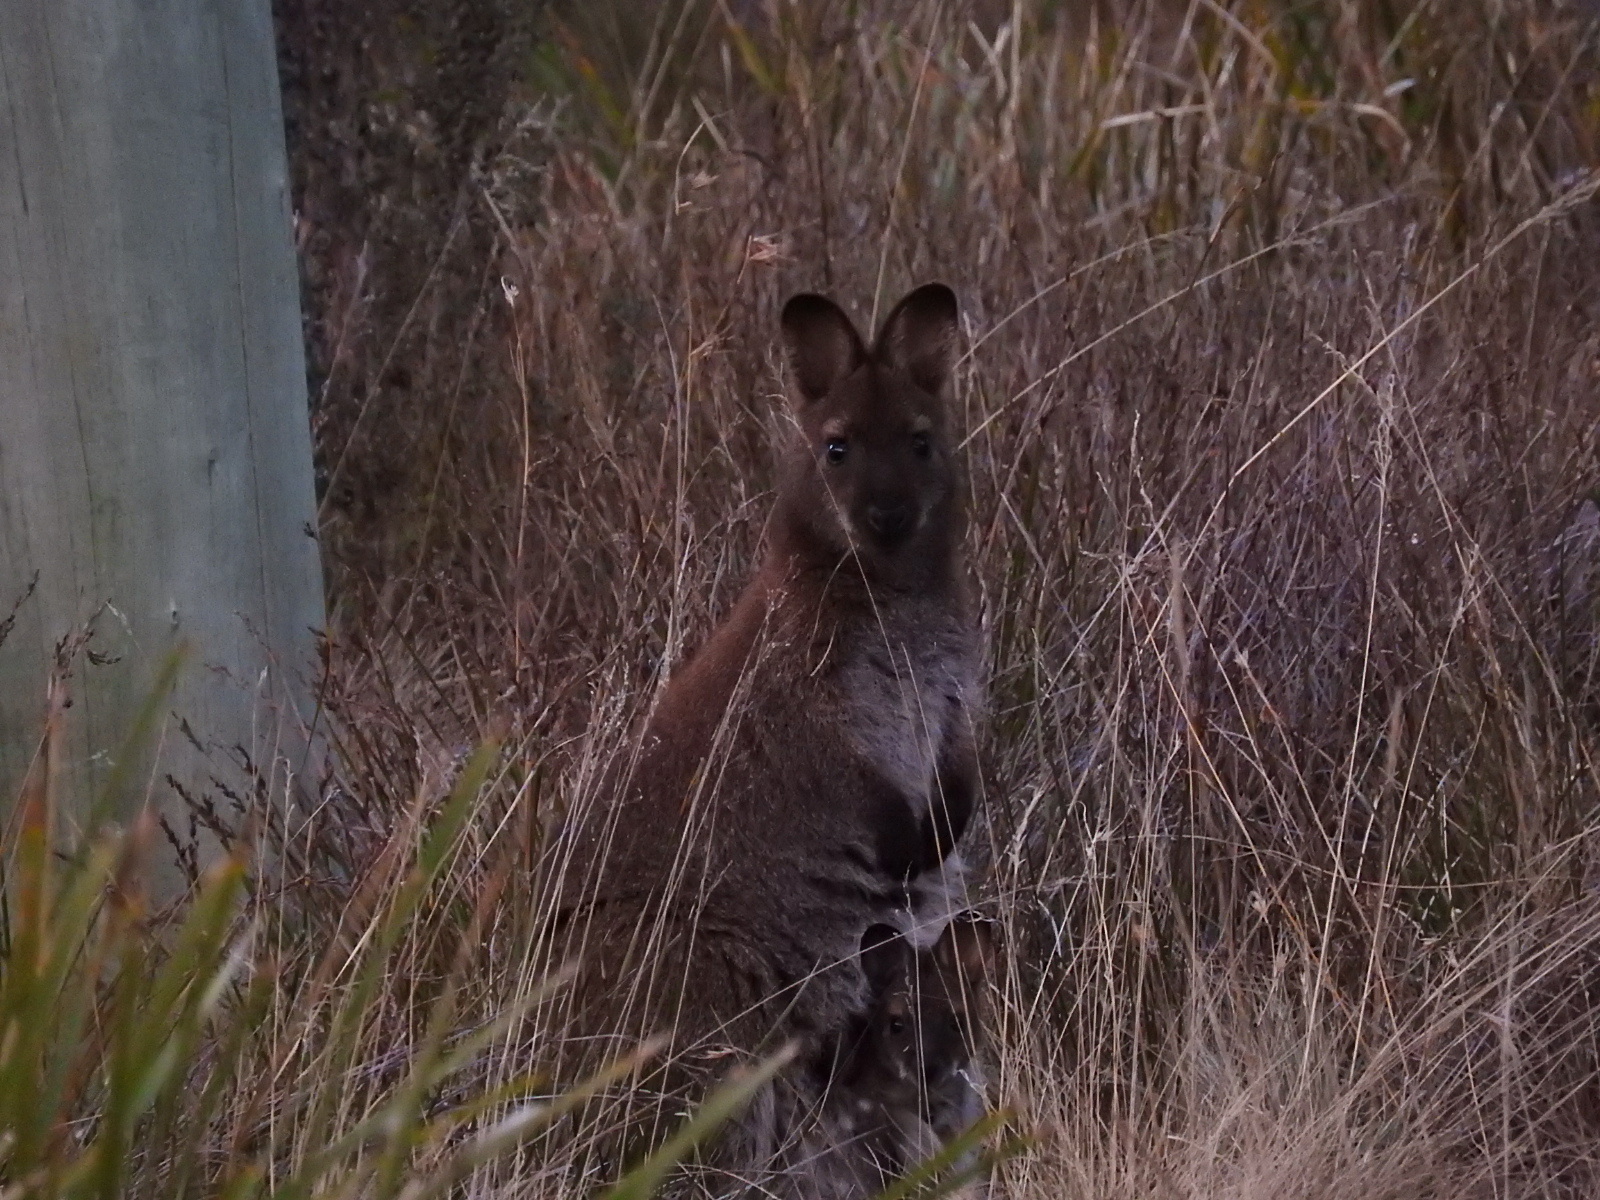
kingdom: Animalia
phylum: Chordata
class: Mammalia
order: Diprotodontia
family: Macropodidae
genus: Notamacropus
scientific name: Notamacropus rufogriseus
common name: Red-necked wallaby
